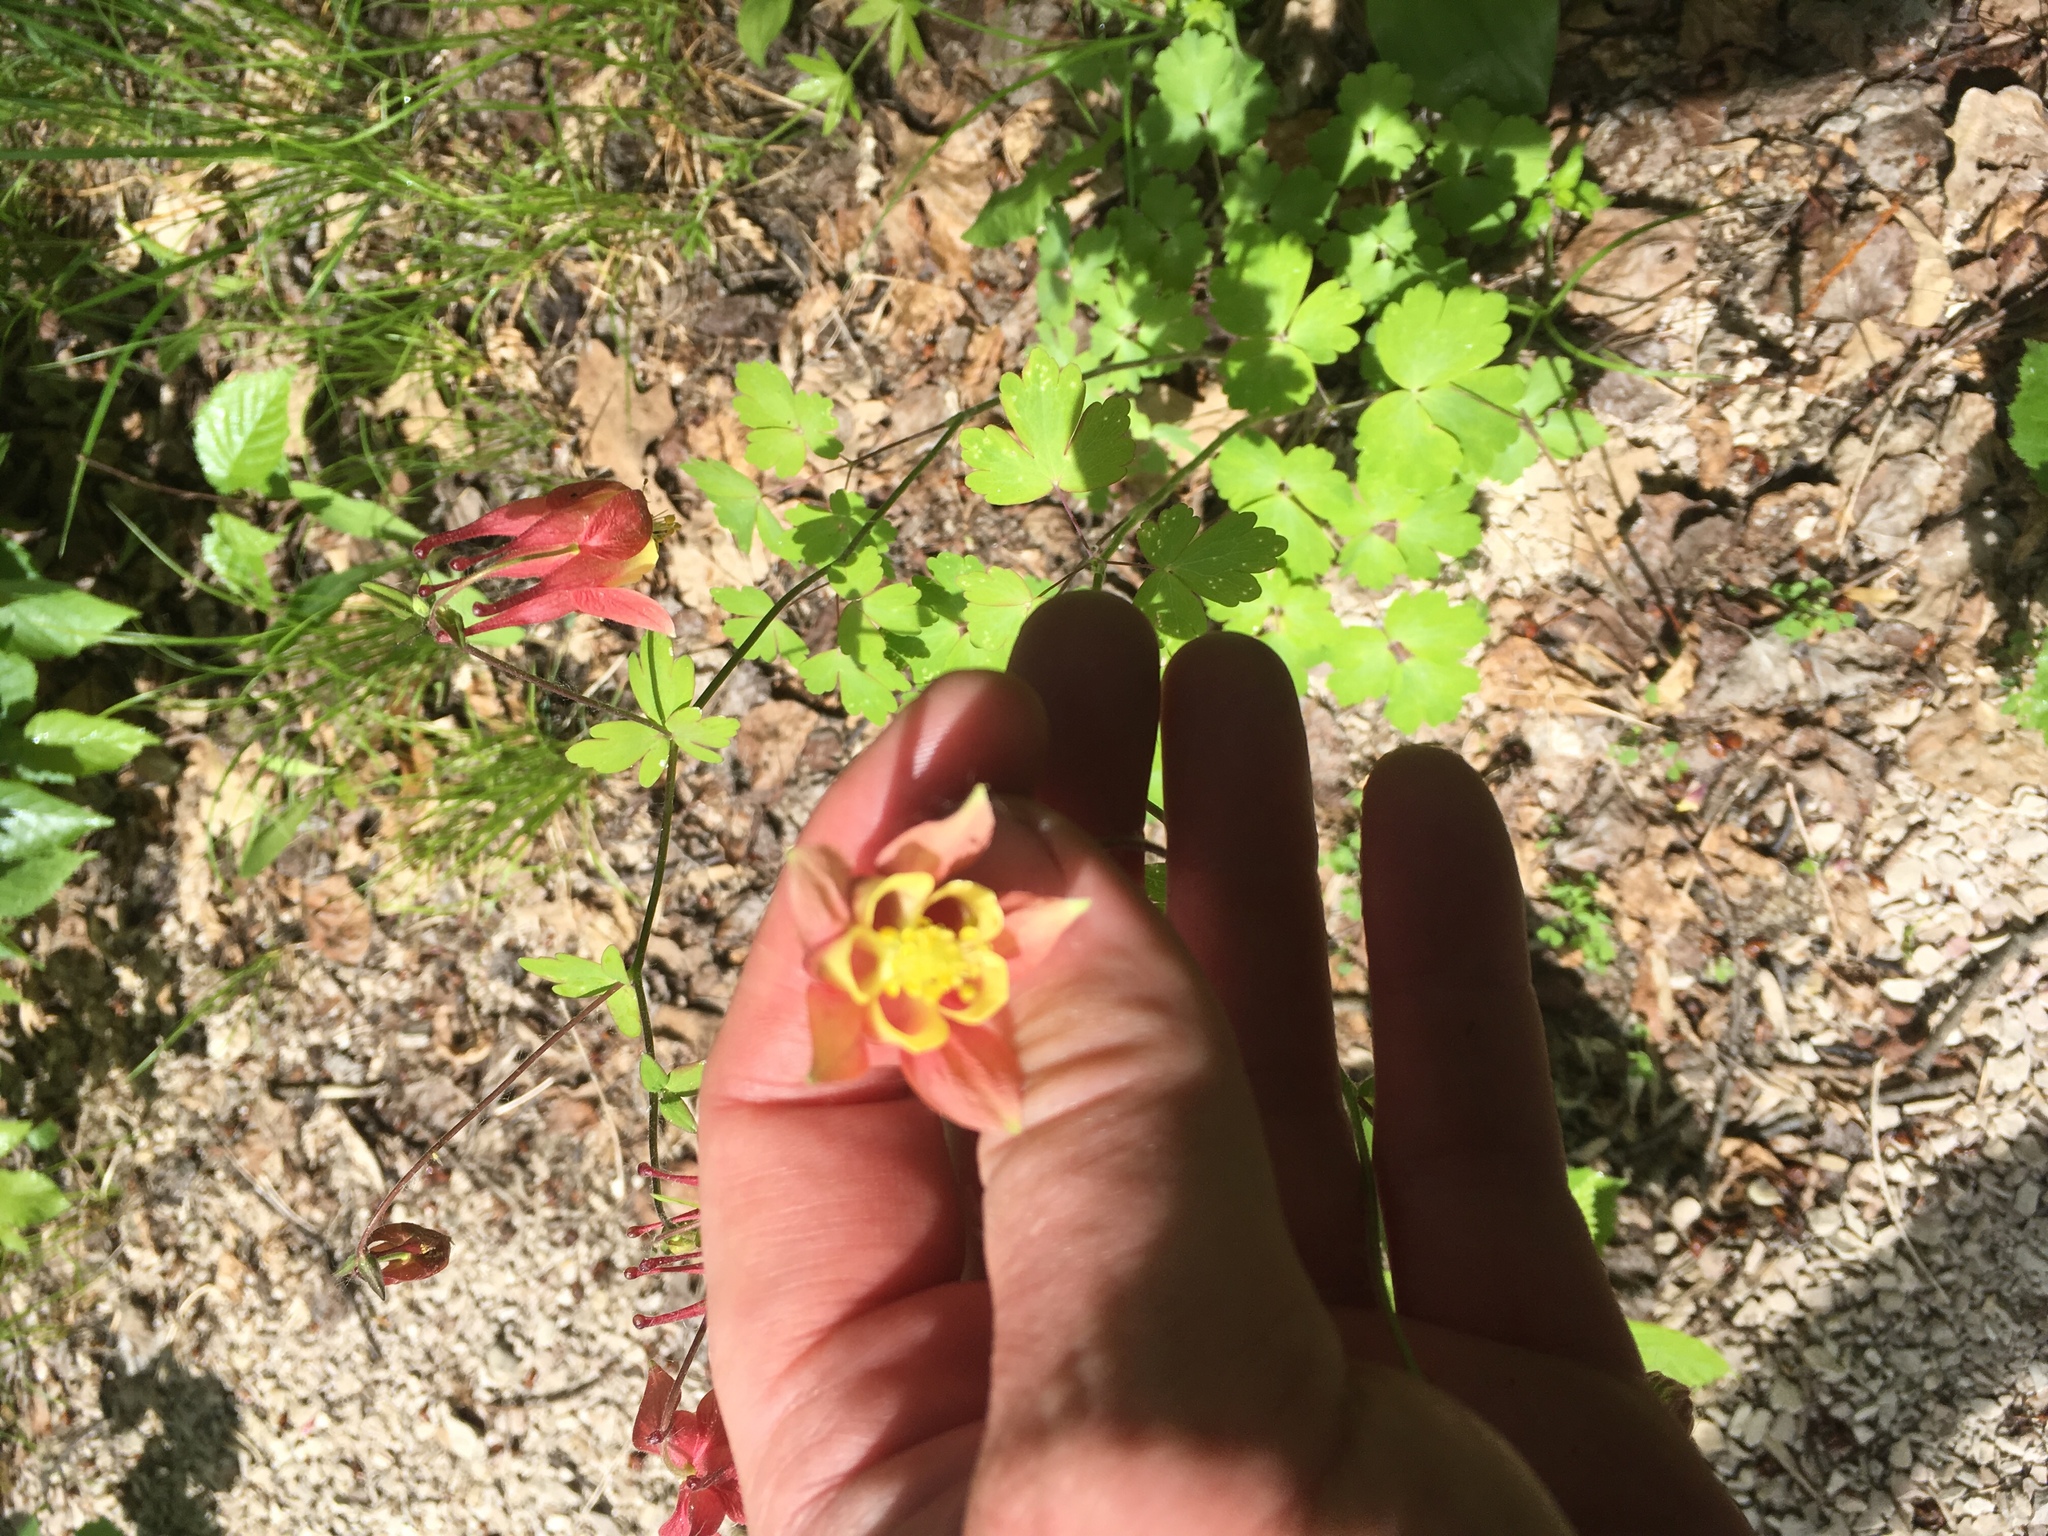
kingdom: Plantae
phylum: Tracheophyta
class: Magnoliopsida
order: Ranunculales
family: Ranunculaceae
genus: Aquilegia
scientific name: Aquilegia canadensis
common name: American columbine
